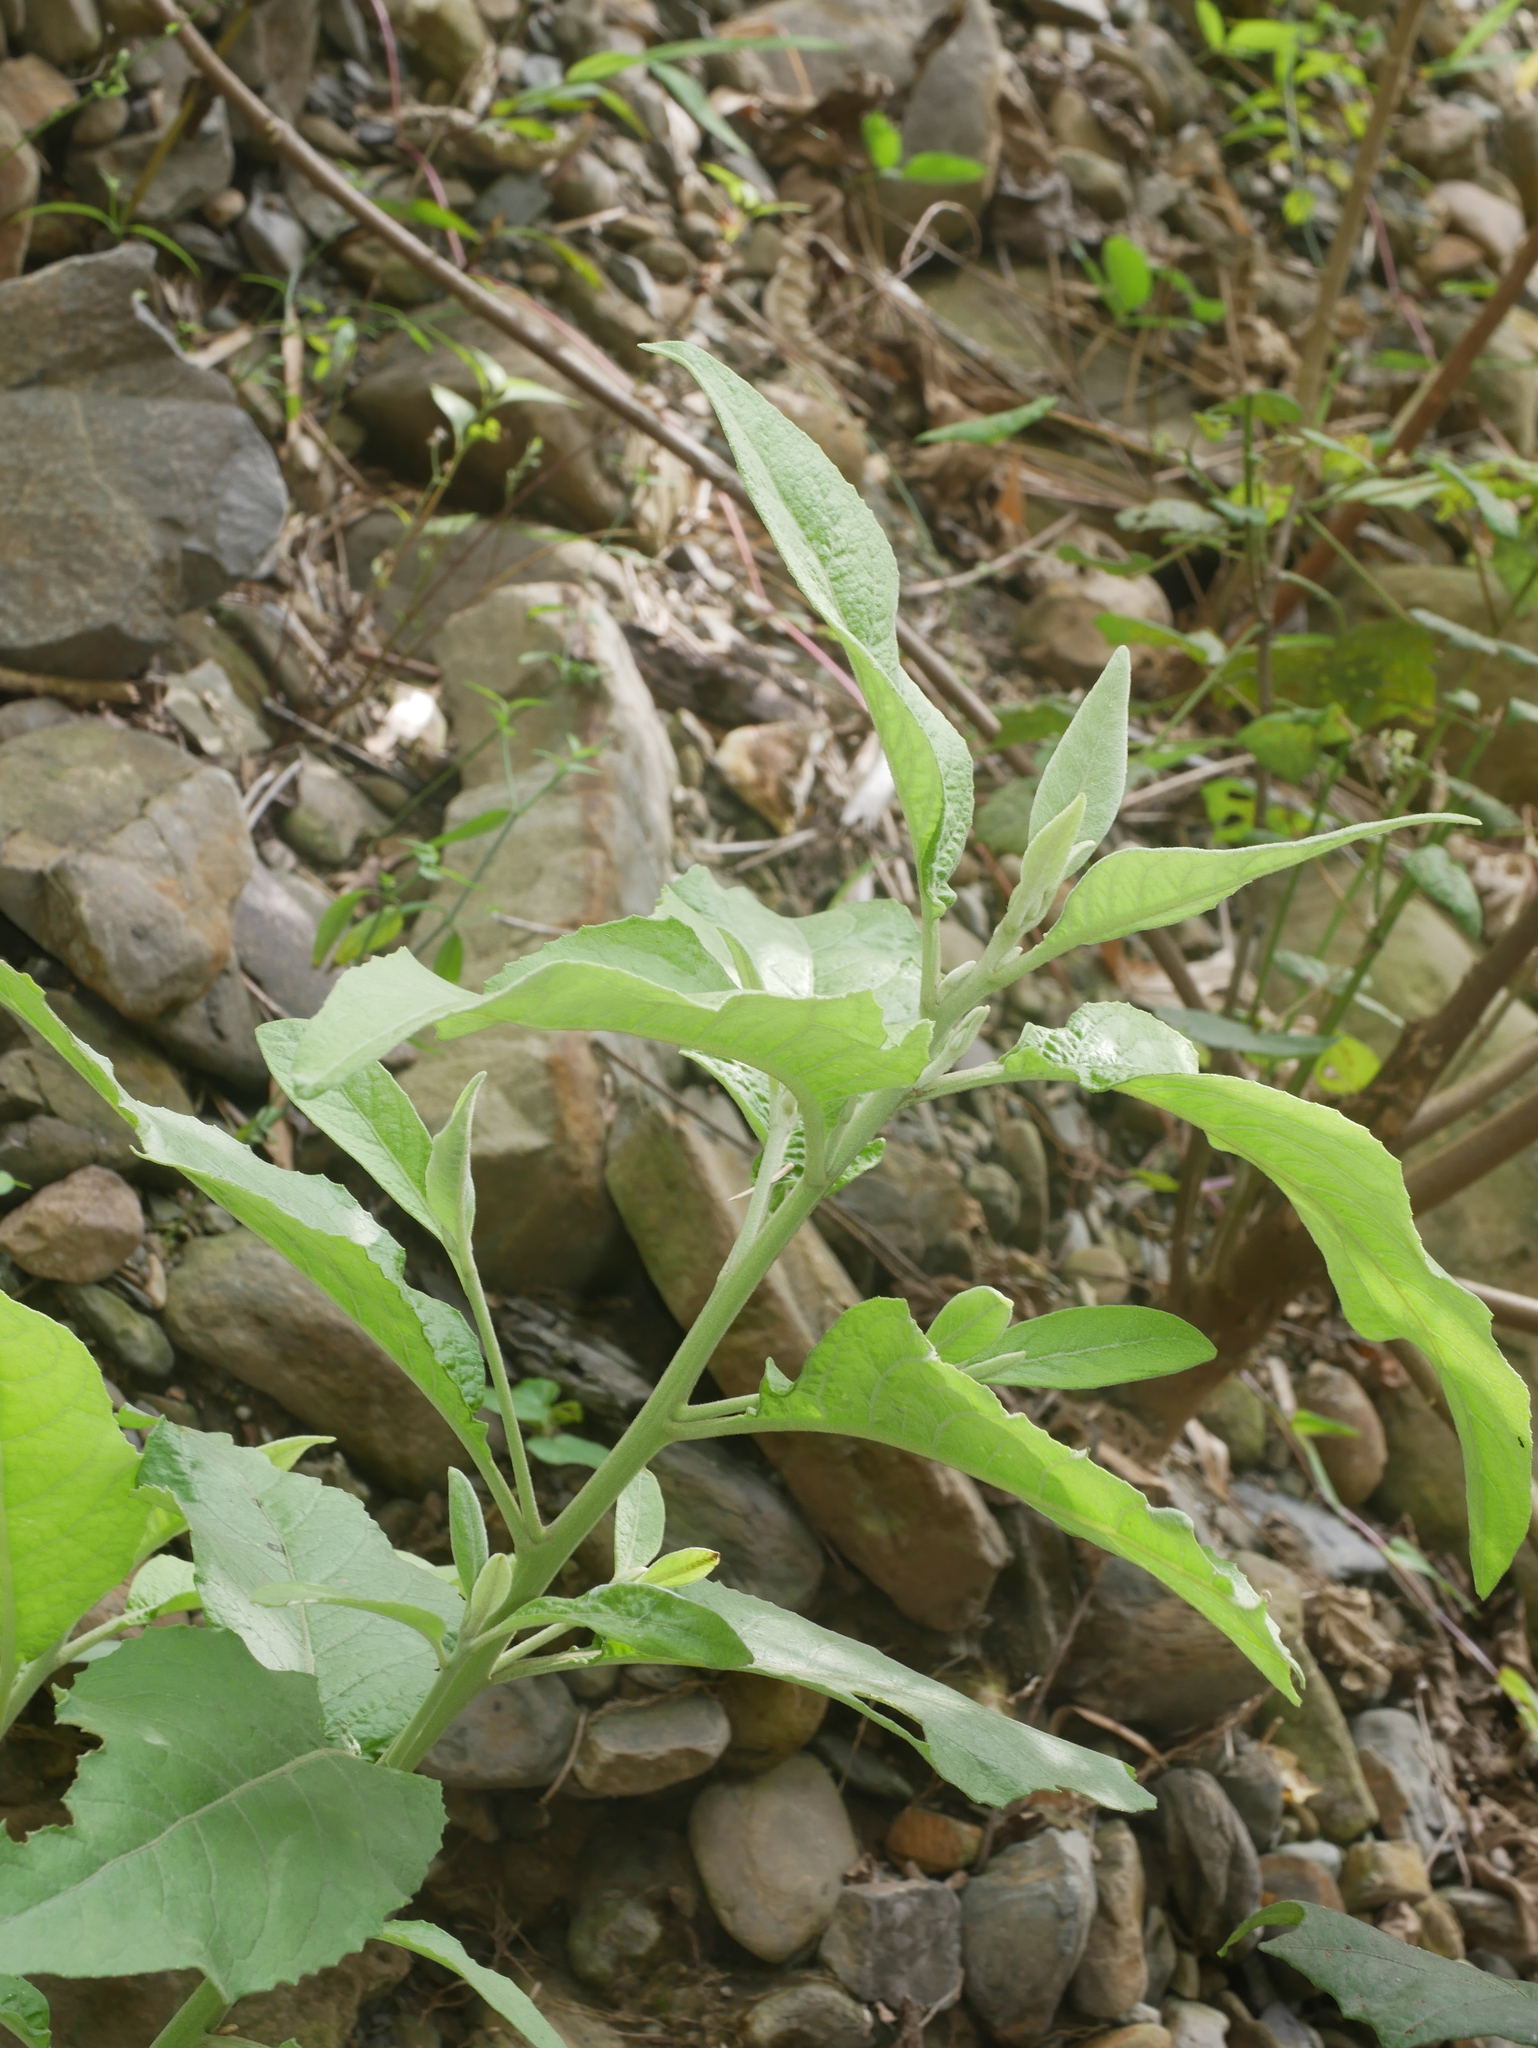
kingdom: Plantae
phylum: Tracheophyta
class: Magnoliopsida
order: Asterales
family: Asteraceae
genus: Gymnanthemum
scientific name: Gymnanthemum amygdalinum
